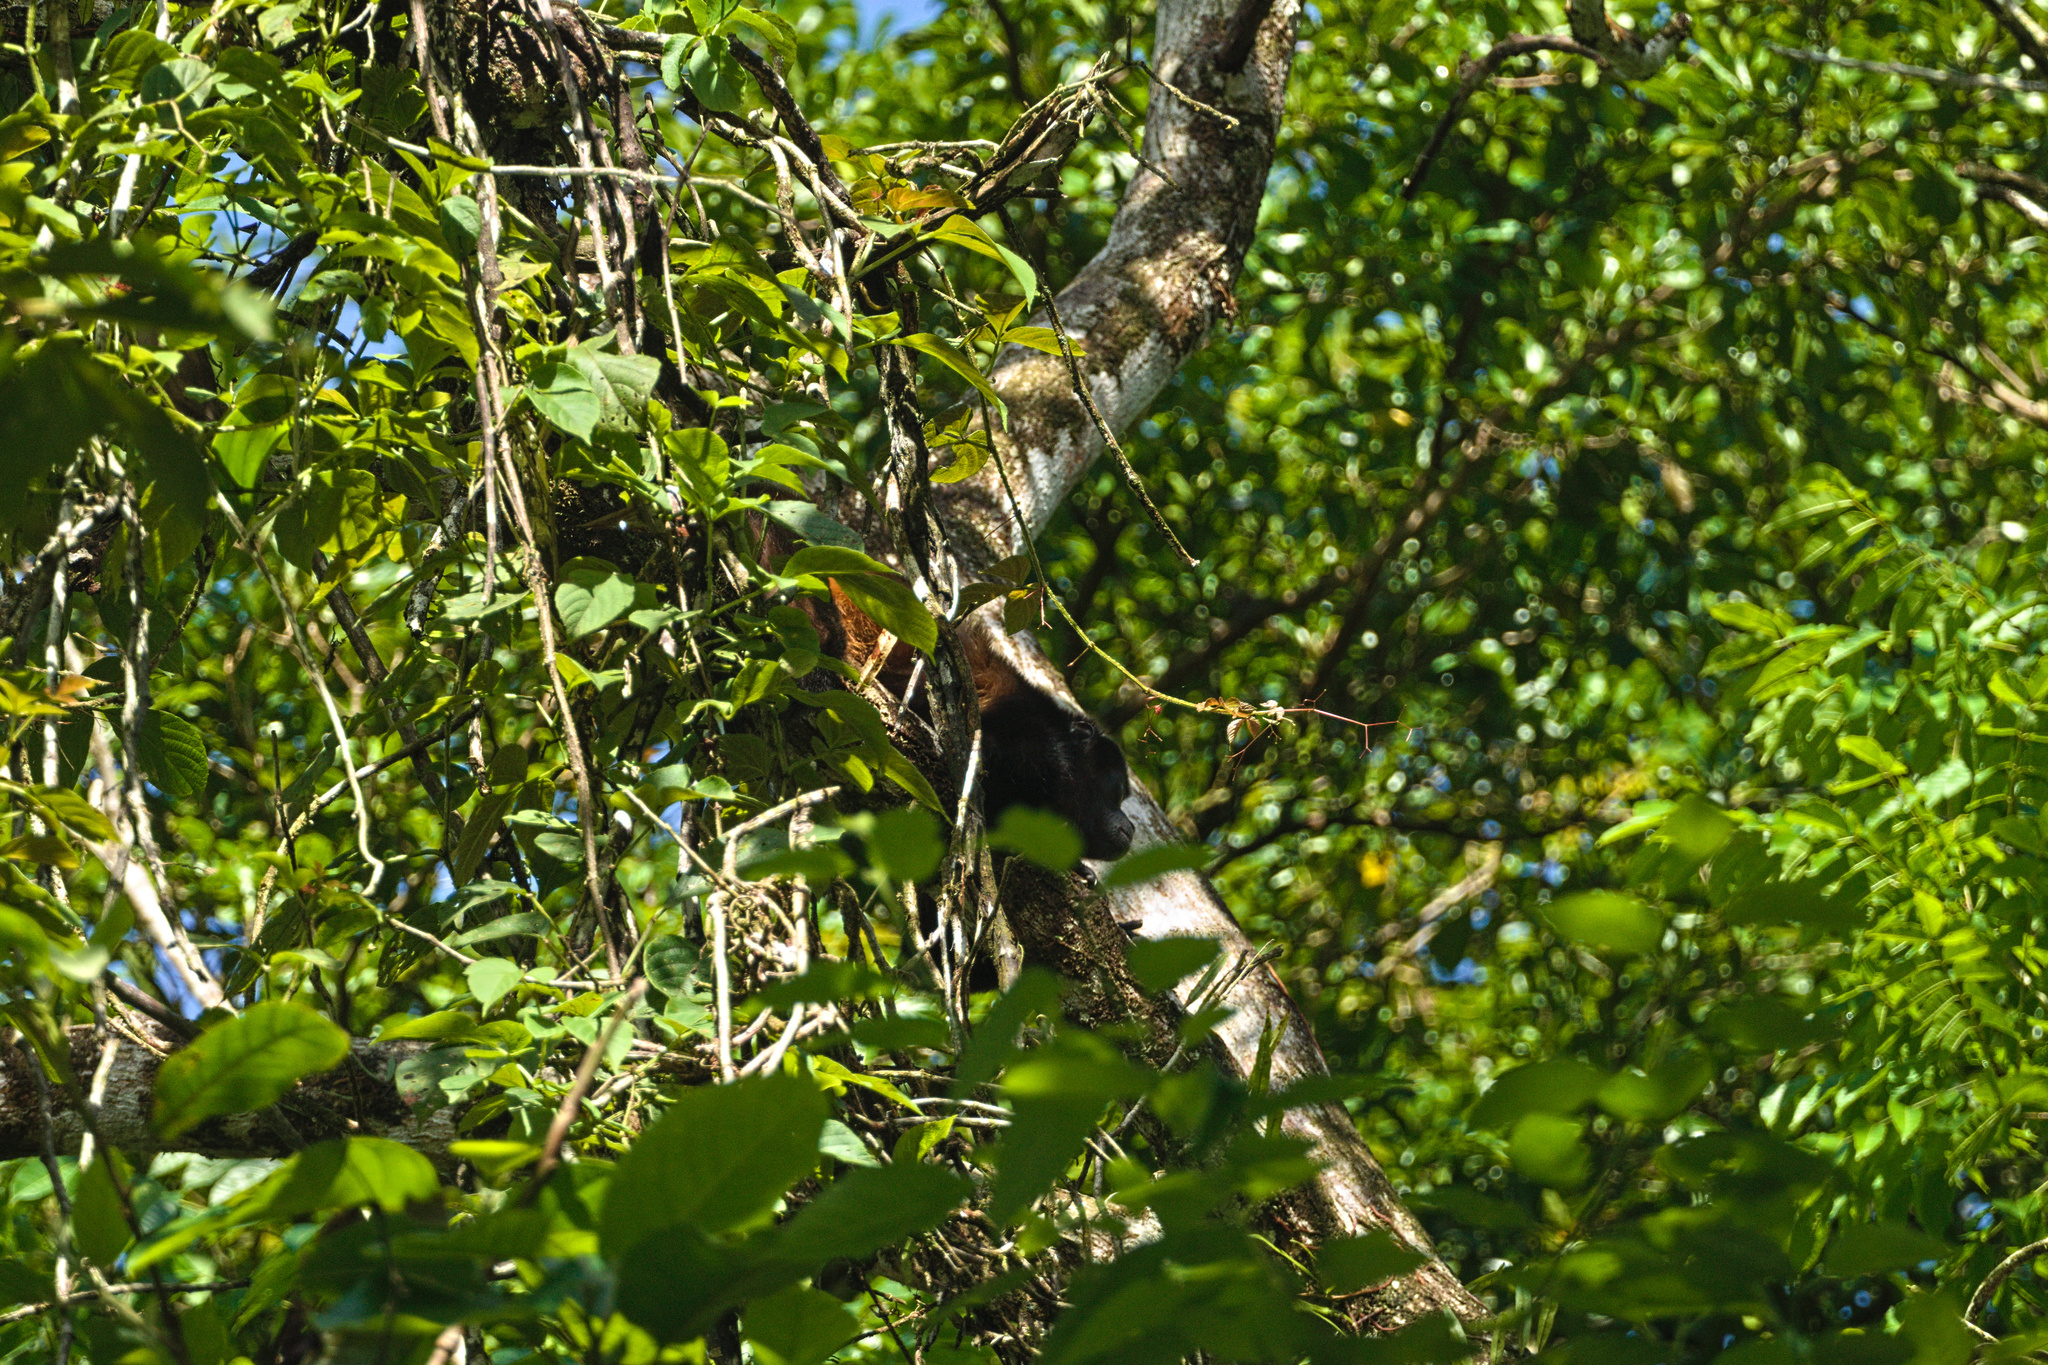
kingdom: Animalia
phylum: Chordata
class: Mammalia
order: Primates
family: Atelidae
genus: Alouatta
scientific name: Alouatta palliata
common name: Mantled howler
